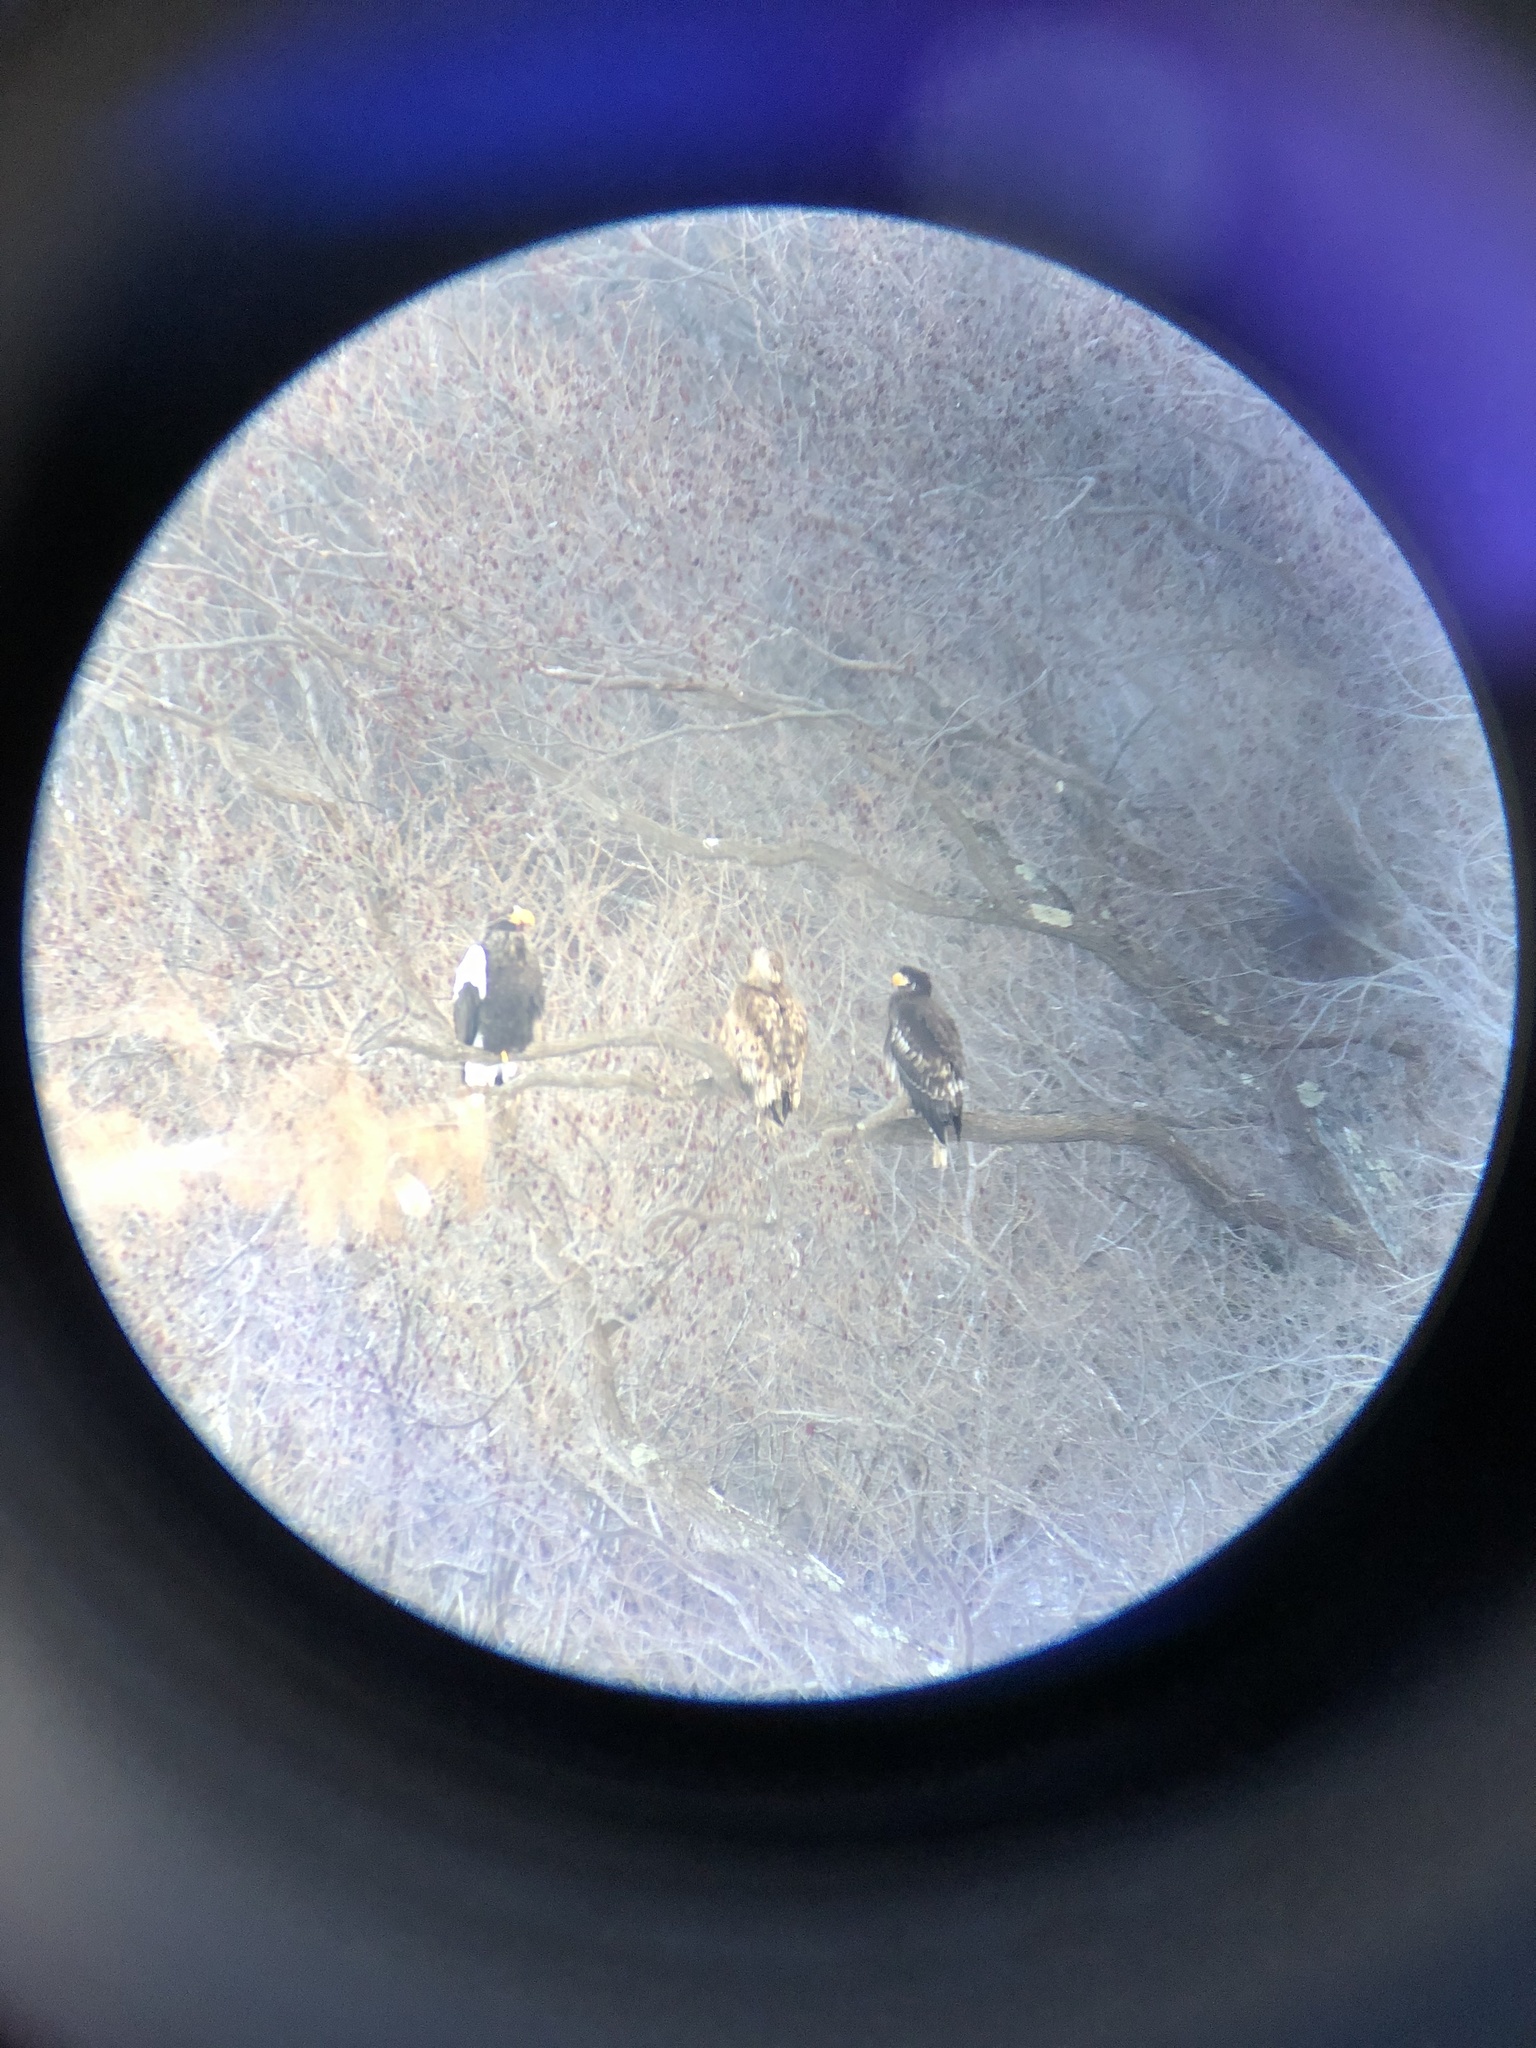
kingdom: Animalia
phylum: Chordata
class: Aves
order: Accipitriformes
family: Accipitridae
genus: Haliaeetus
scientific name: Haliaeetus pelagicus
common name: Steller's sea eagle
